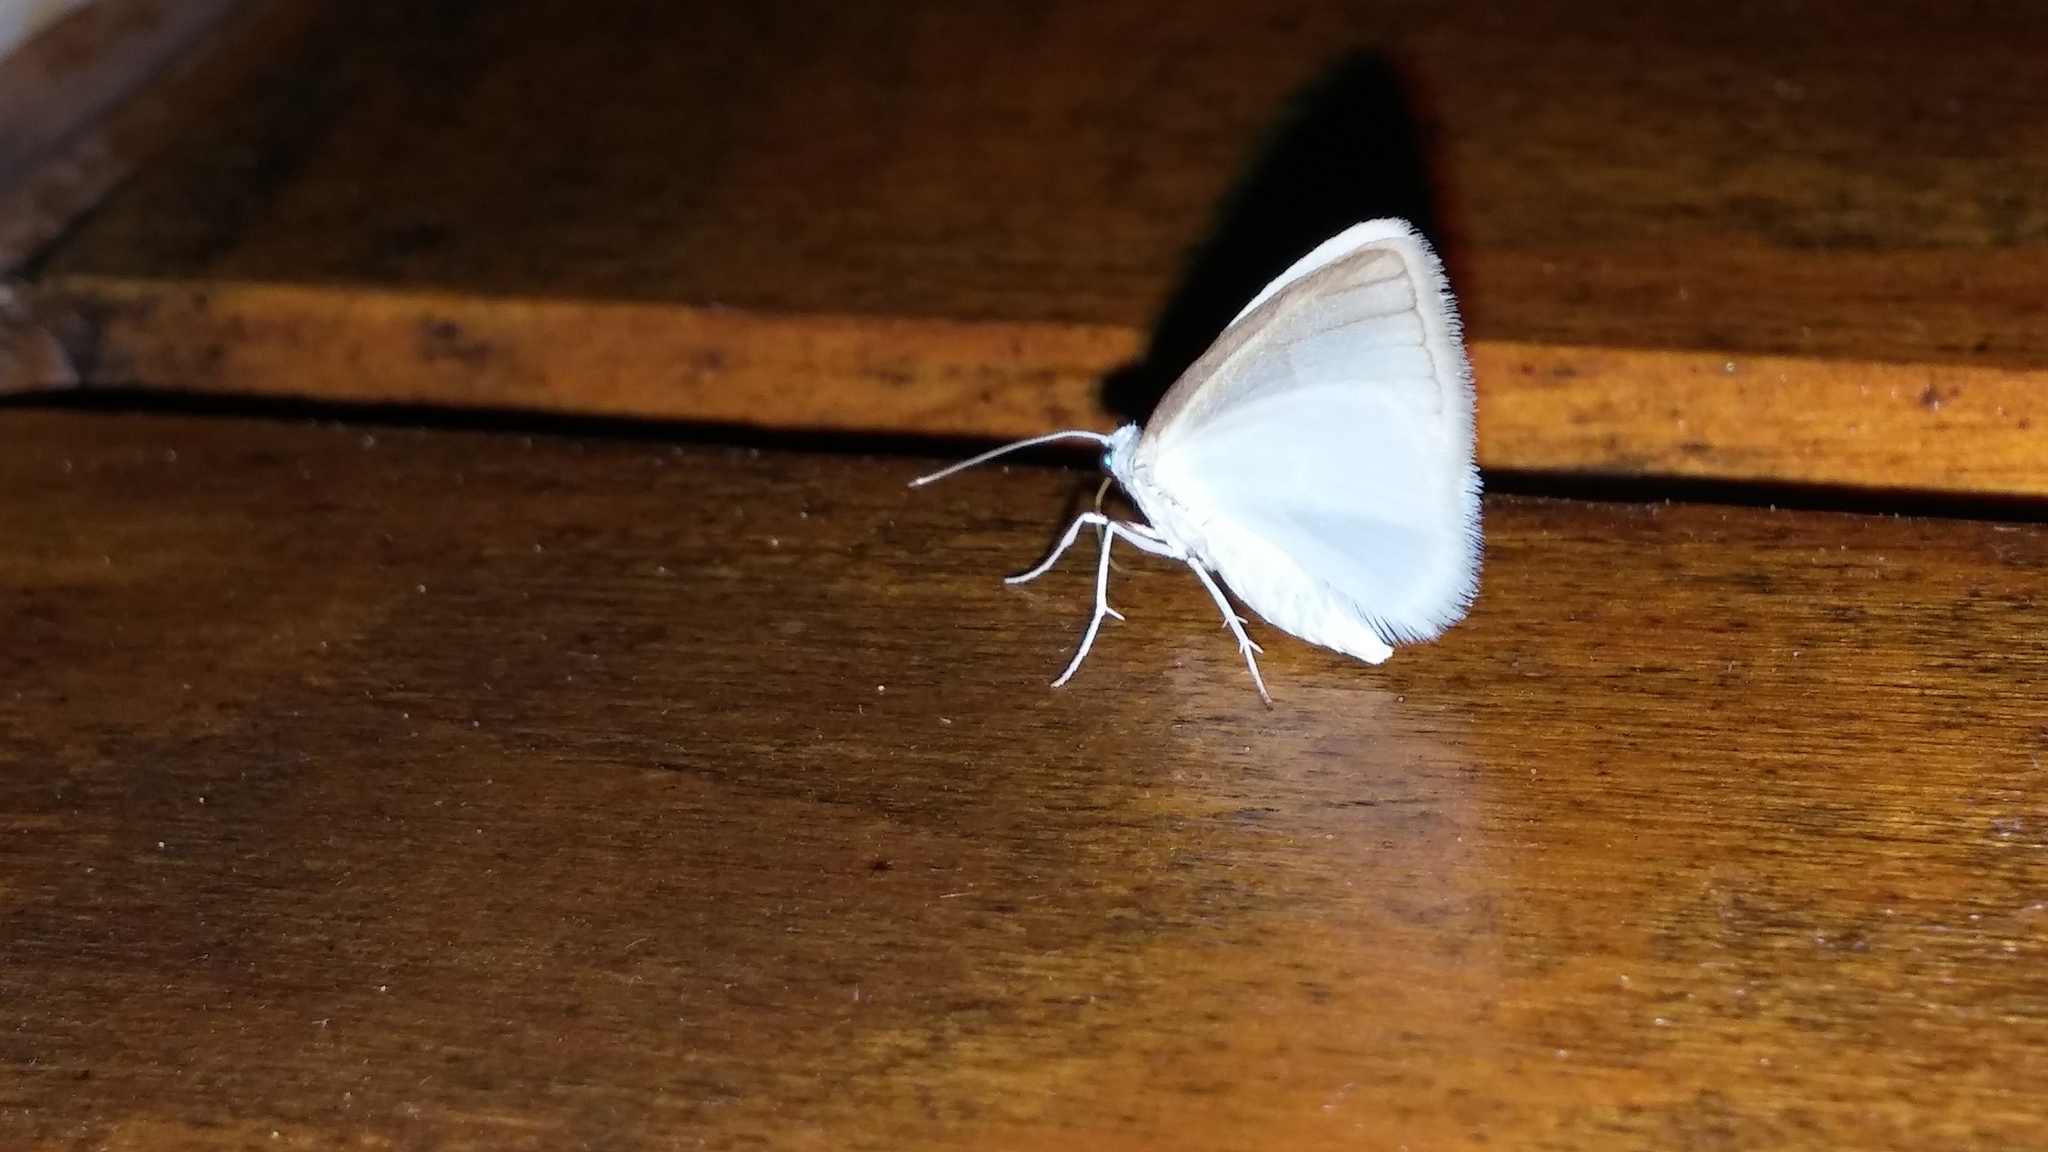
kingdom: Animalia
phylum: Arthropoda
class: Insecta
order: Lepidoptera
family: Geometridae
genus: Lomographa
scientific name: Lomographa vestaliata
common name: White spring moth
